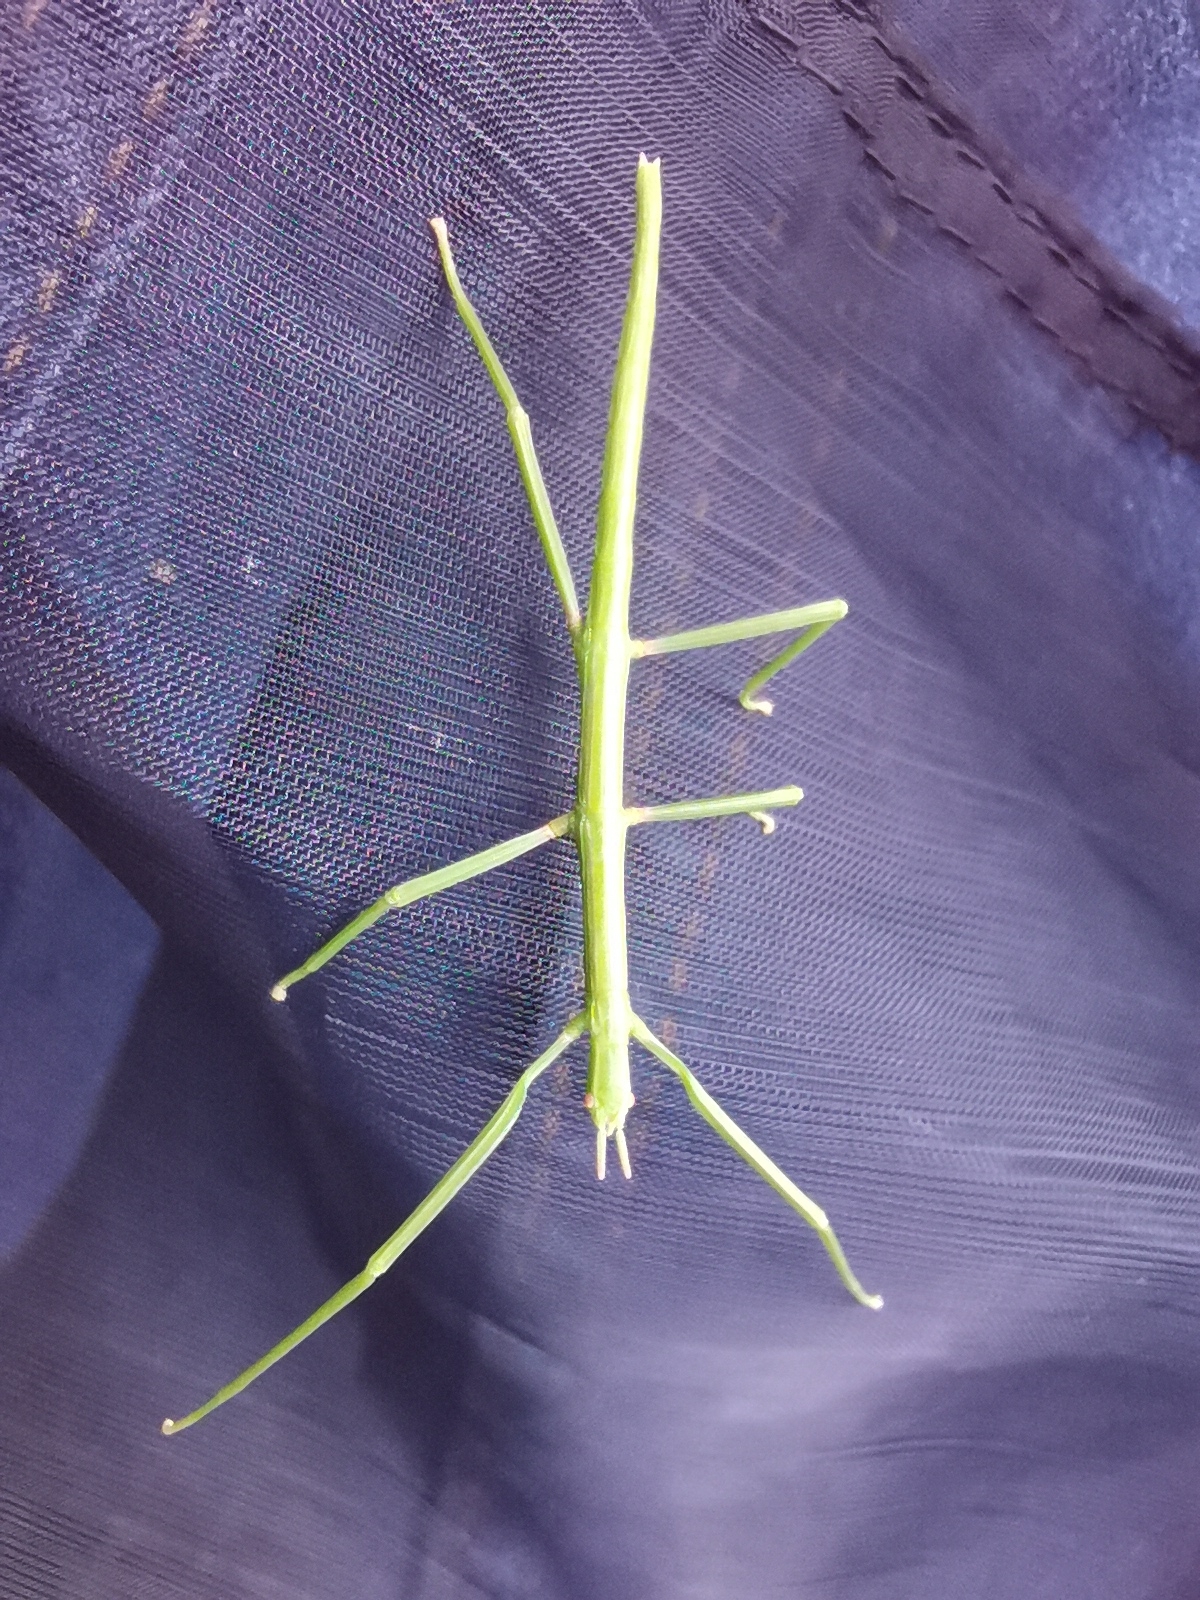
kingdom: Animalia
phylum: Arthropoda
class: Insecta
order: Phasmida
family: Bacillidae
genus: Clonopsis
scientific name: Clonopsis gallica
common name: French stick insect
